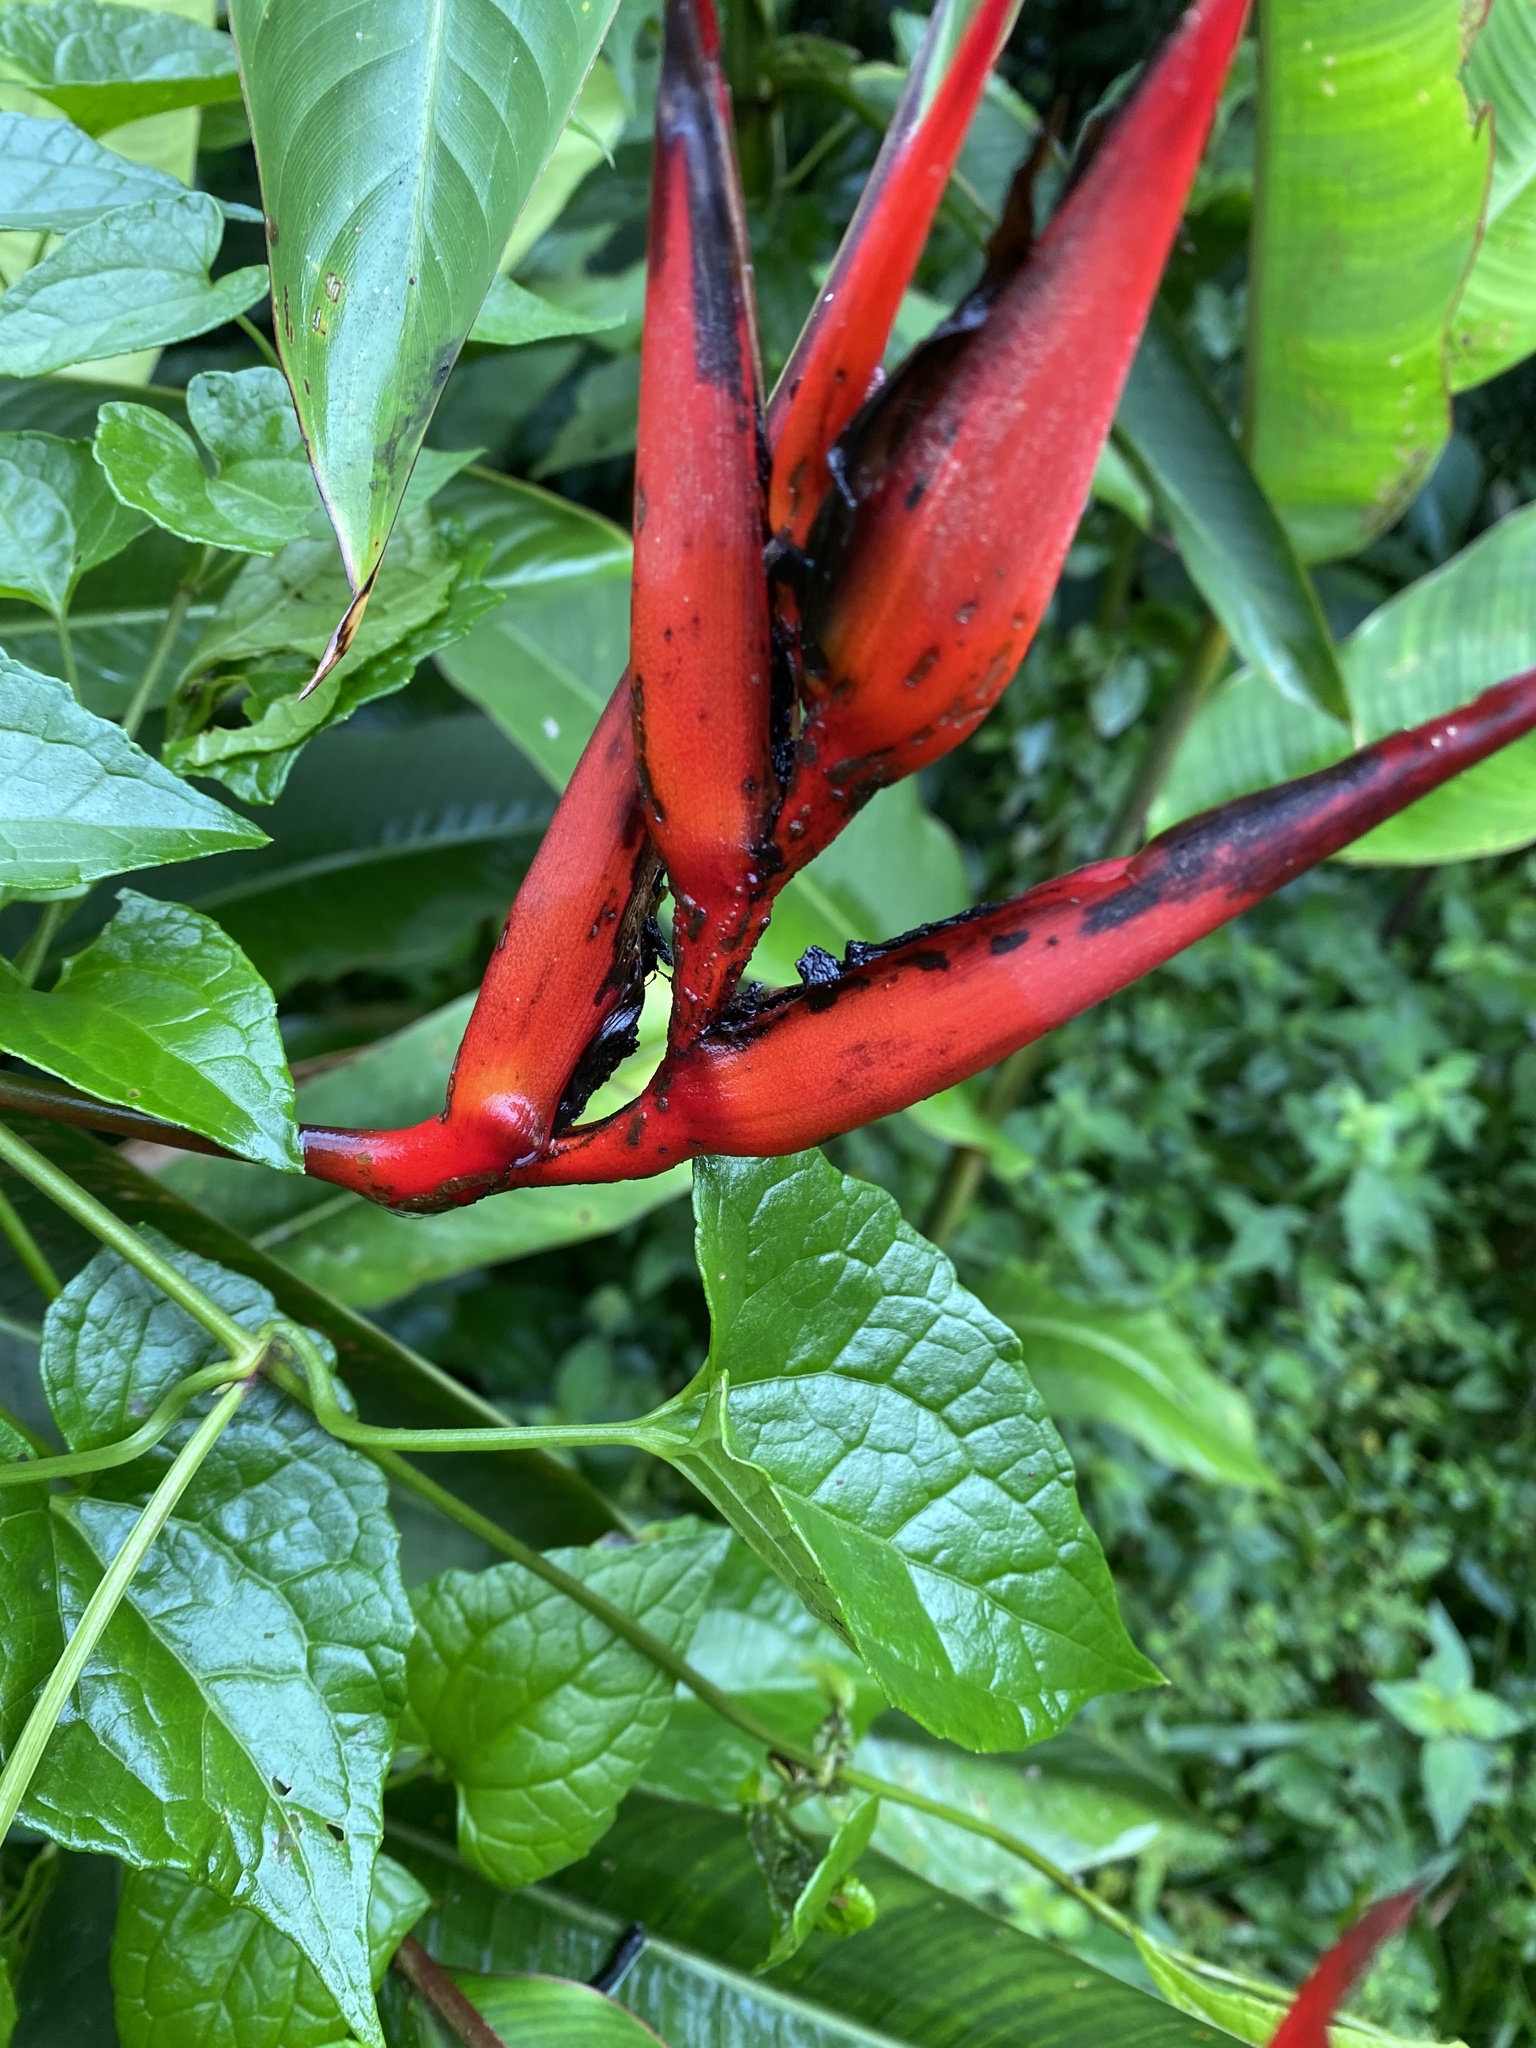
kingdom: Plantae
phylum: Tracheophyta
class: Liliopsida
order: Zingiberales
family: Heliconiaceae
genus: Heliconia
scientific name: Heliconia mathiasiae
